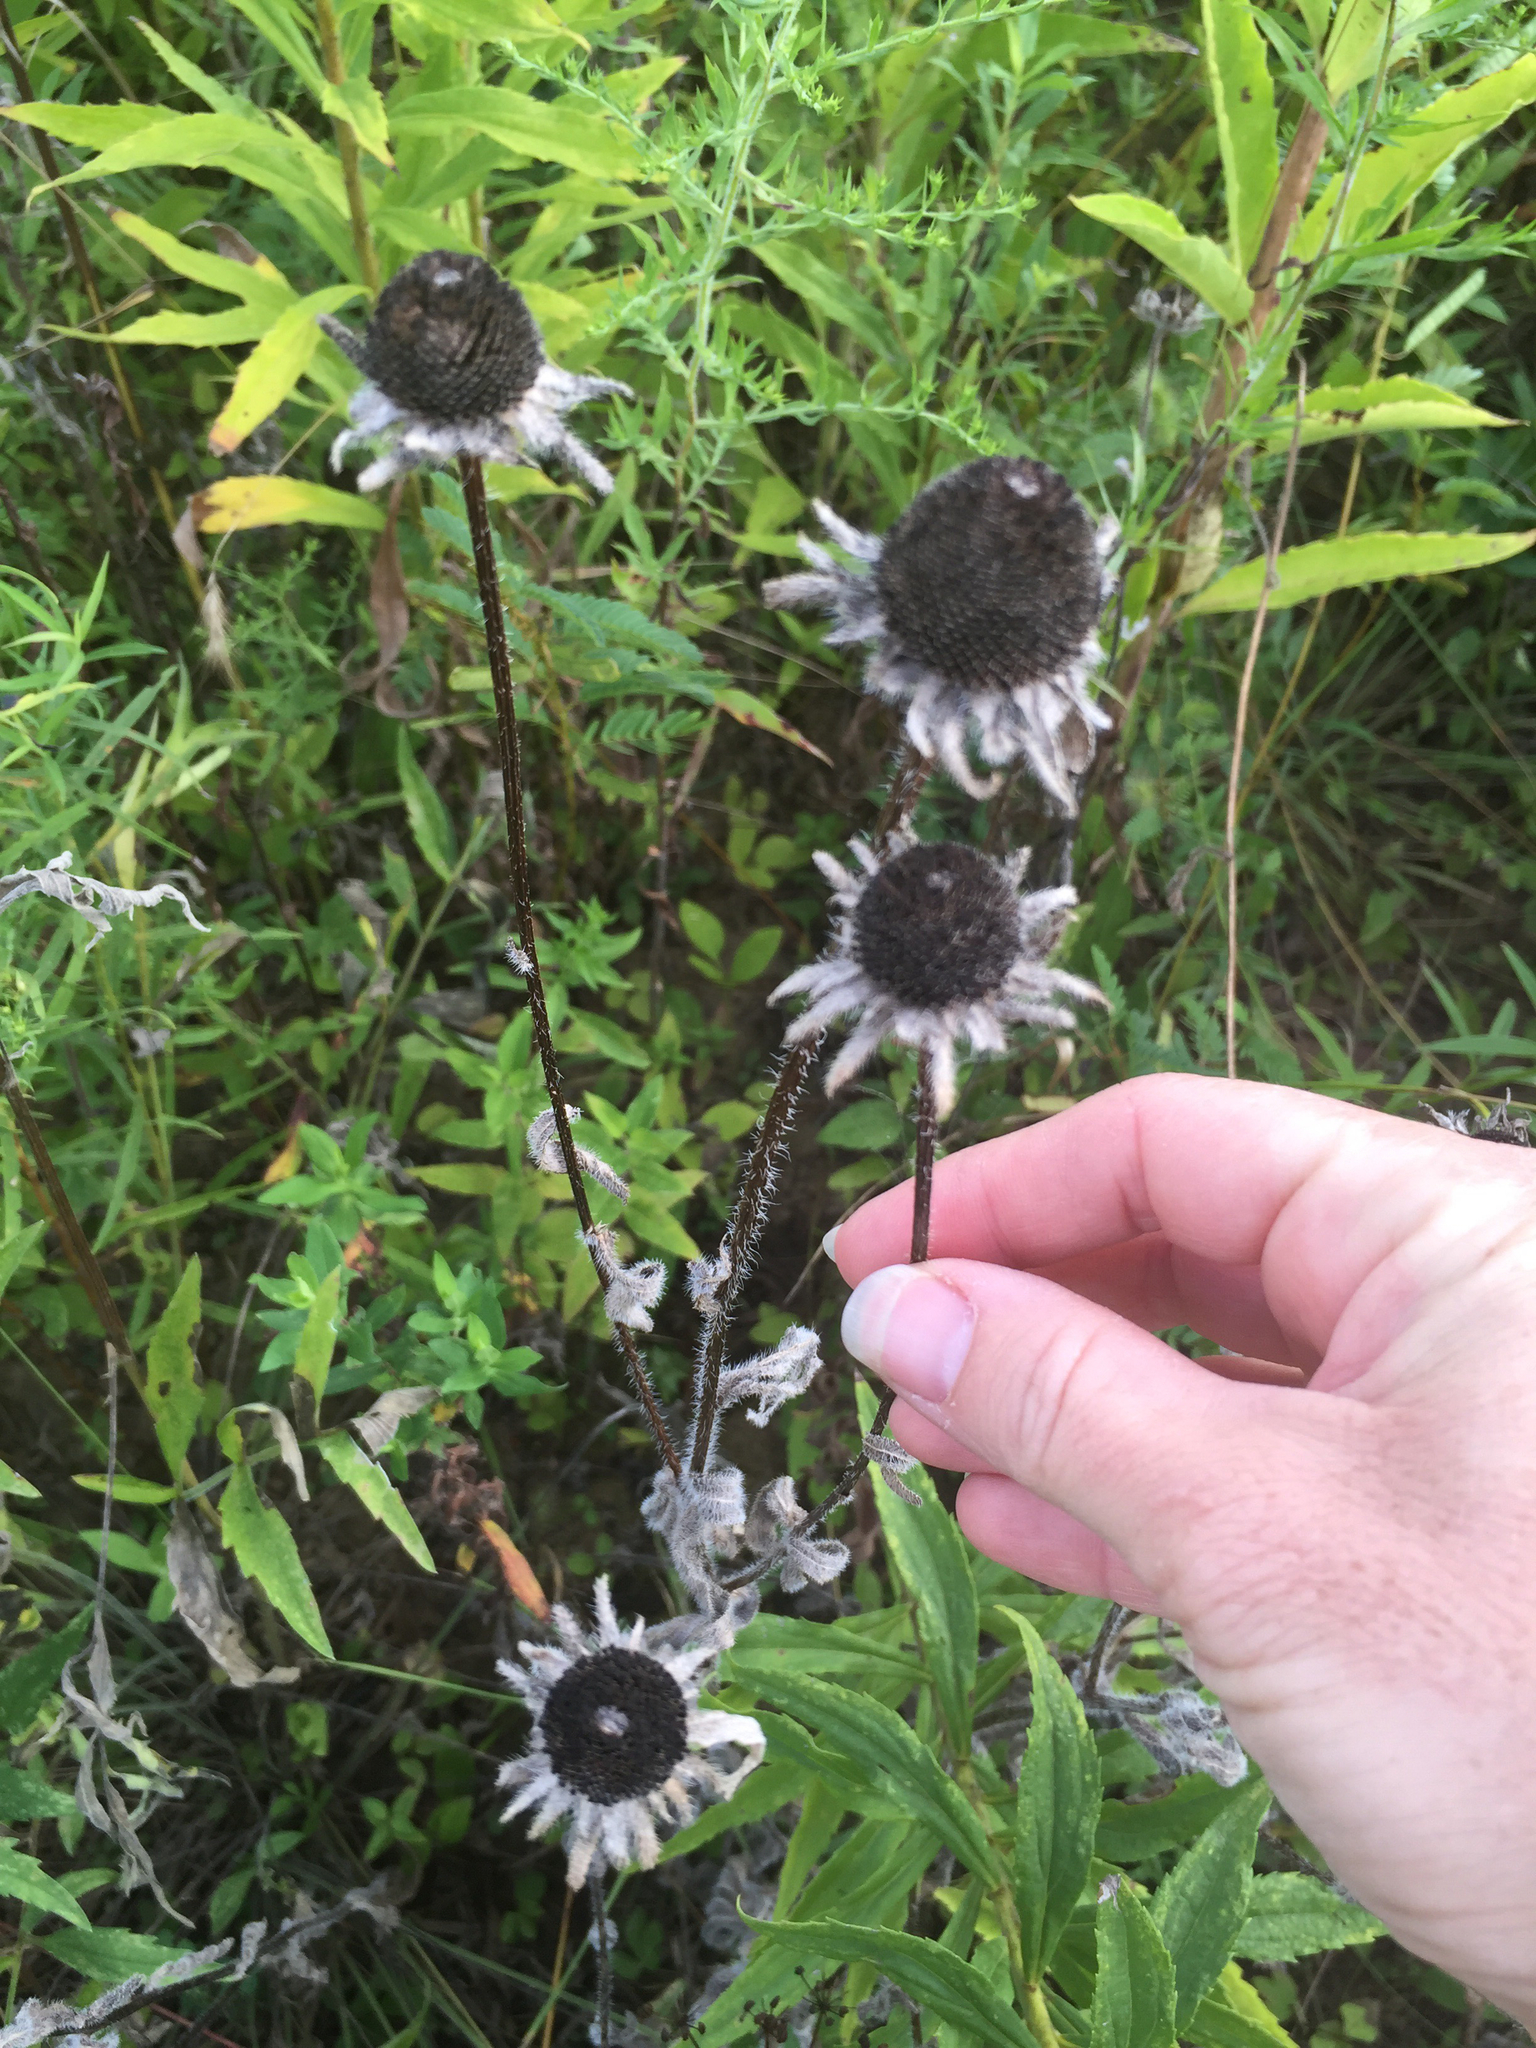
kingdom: Plantae
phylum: Tracheophyta
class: Magnoliopsida
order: Asterales
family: Asteraceae
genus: Rudbeckia
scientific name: Rudbeckia hirta
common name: Black-eyed-susan
